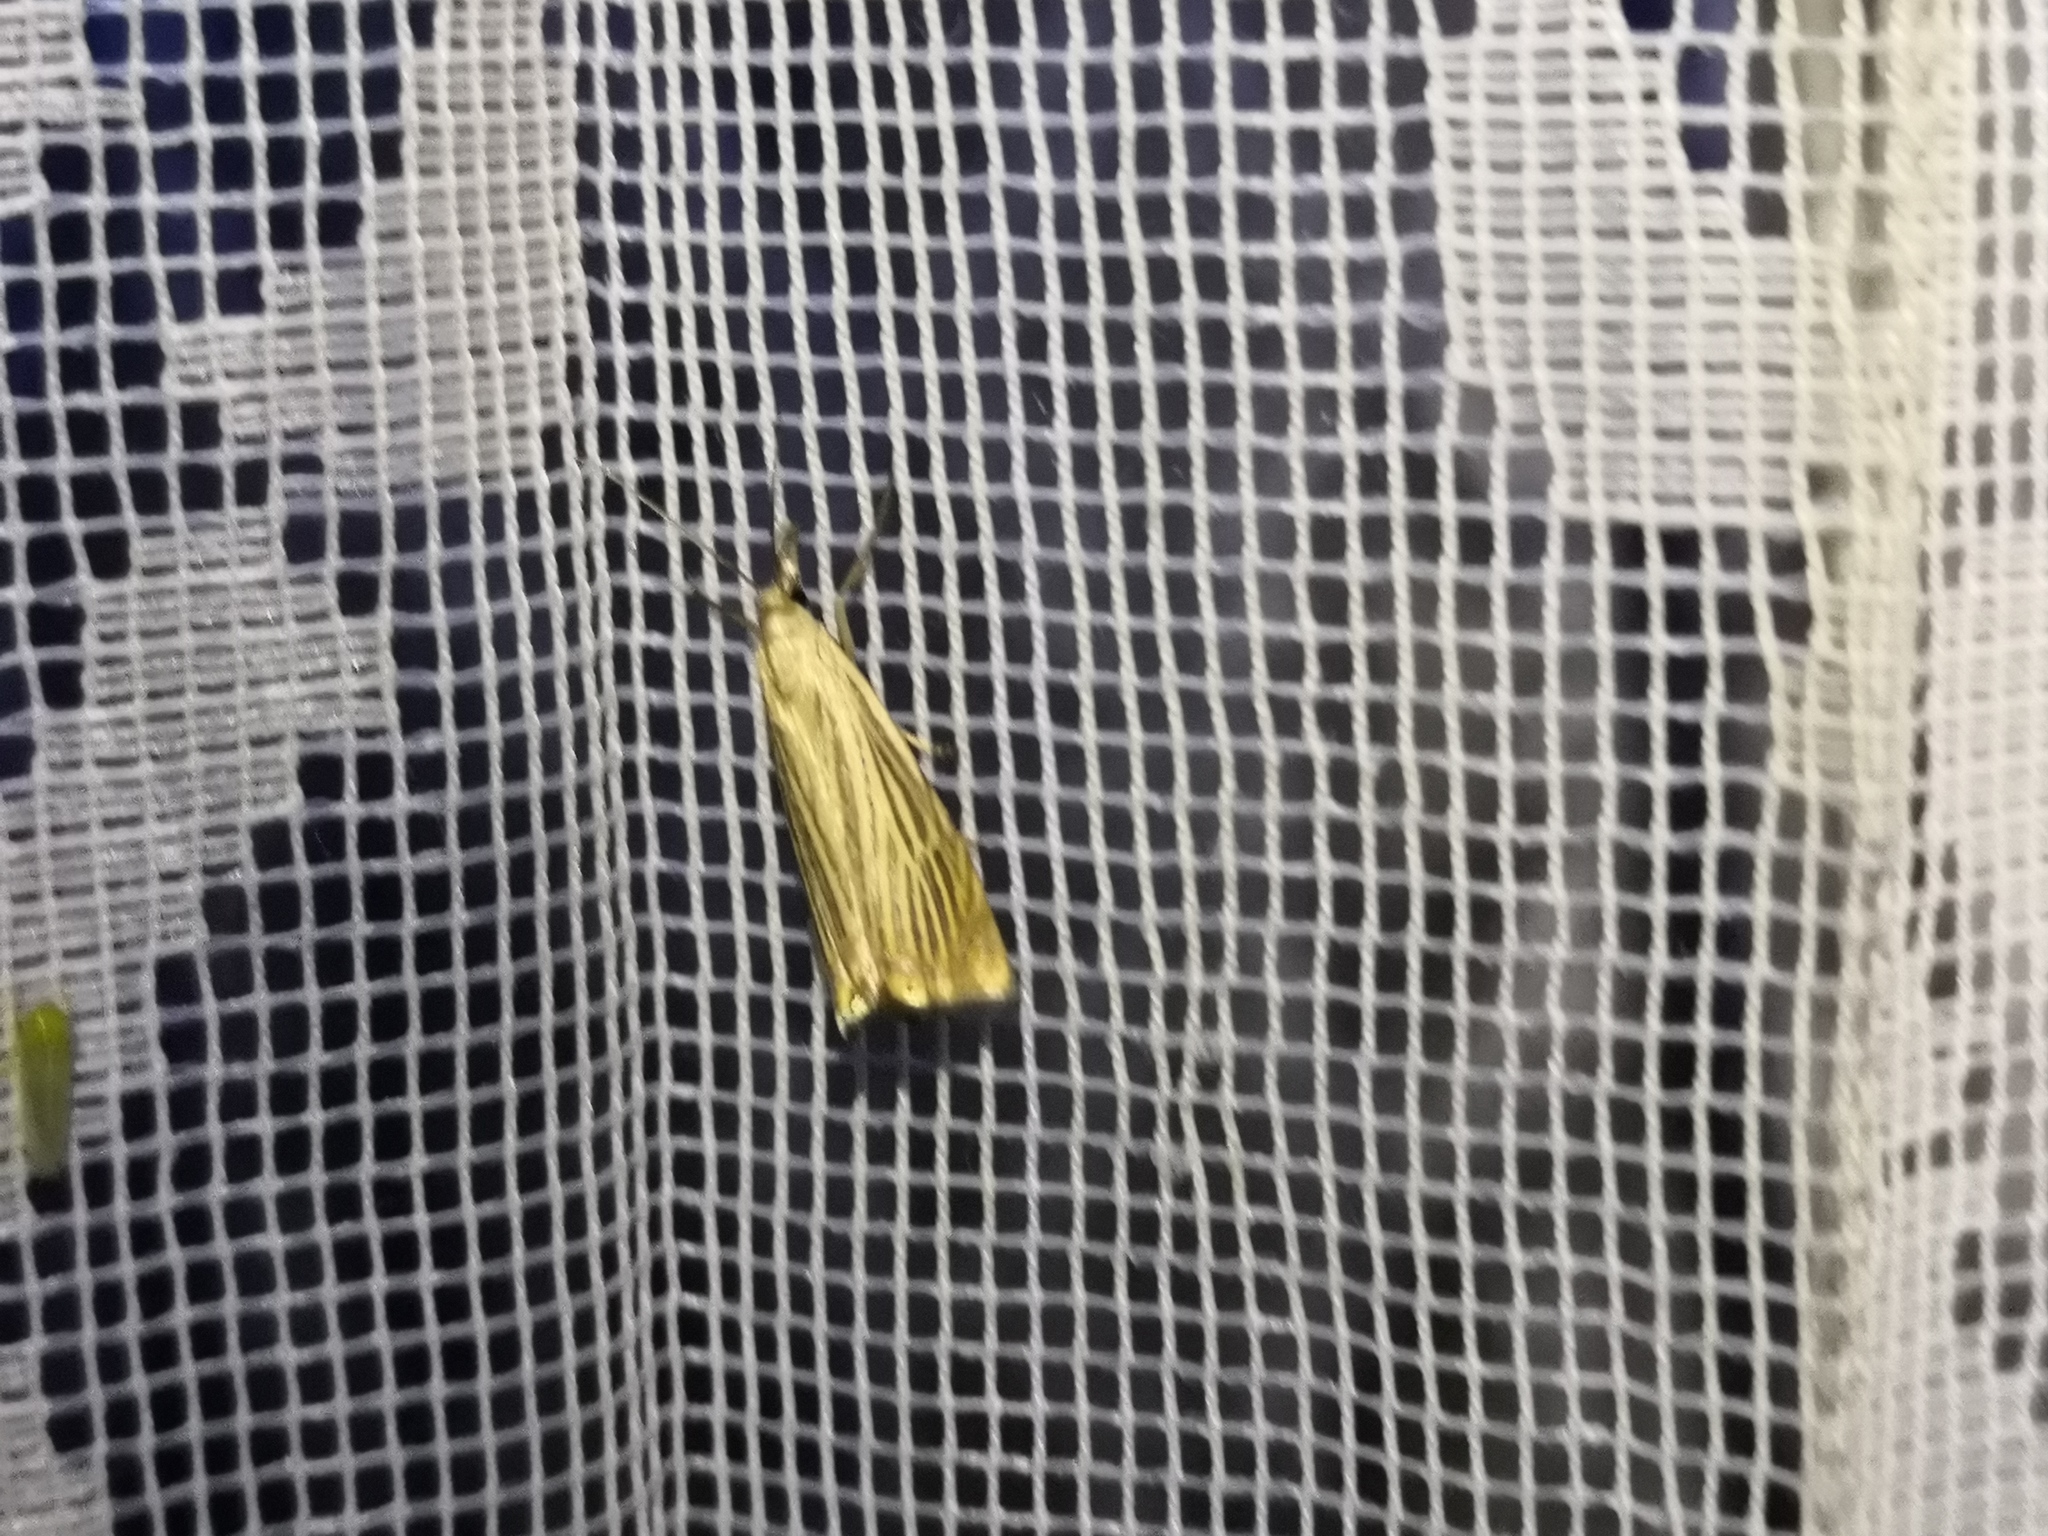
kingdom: Animalia
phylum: Arthropoda
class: Insecta
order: Lepidoptera
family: Crambidae
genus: Chrysoteuchia
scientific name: Chrysoteuchia culmella
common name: Garden grass-veneer
